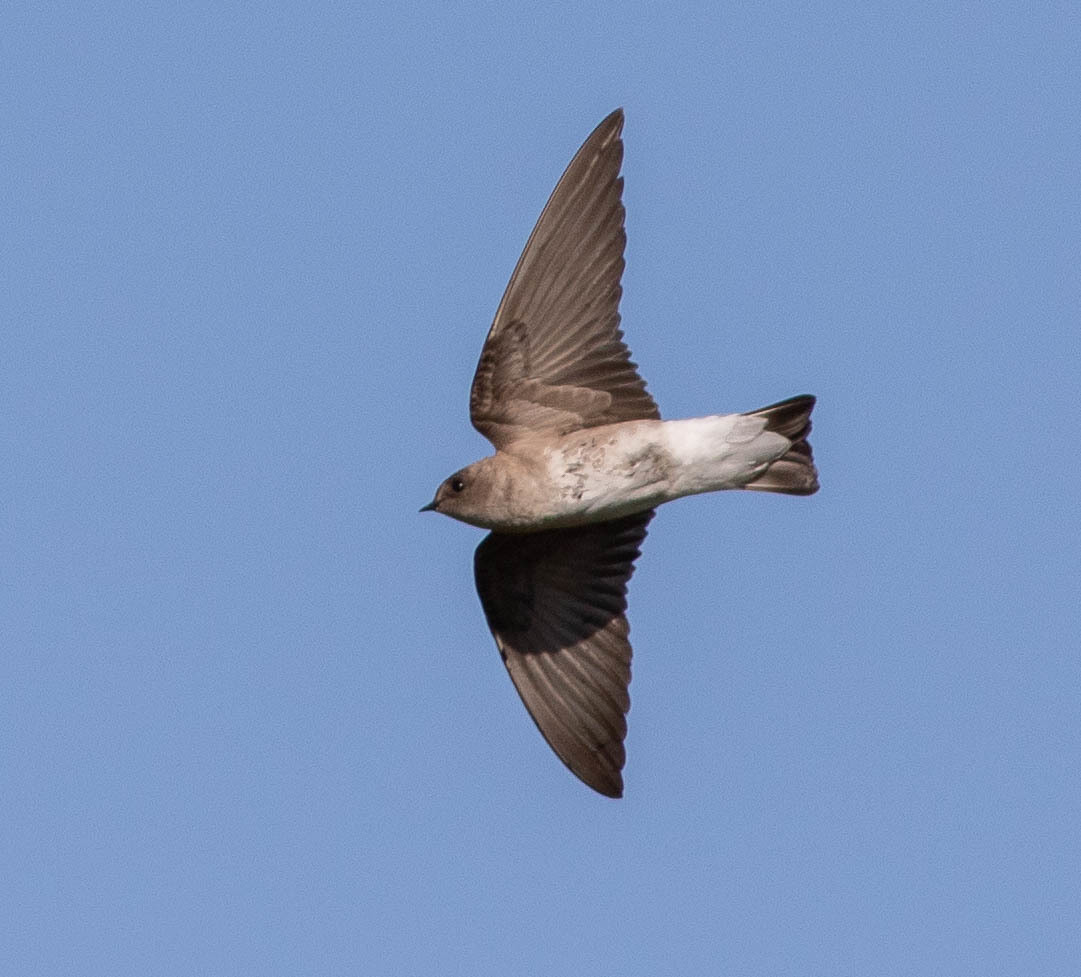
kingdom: Animalia
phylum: Chordata
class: Aves
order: Passeriformes
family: Hirundinidae
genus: Stelgidopteryx
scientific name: Stelgidopteryx serripennis
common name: Northern rough-winged swallow
